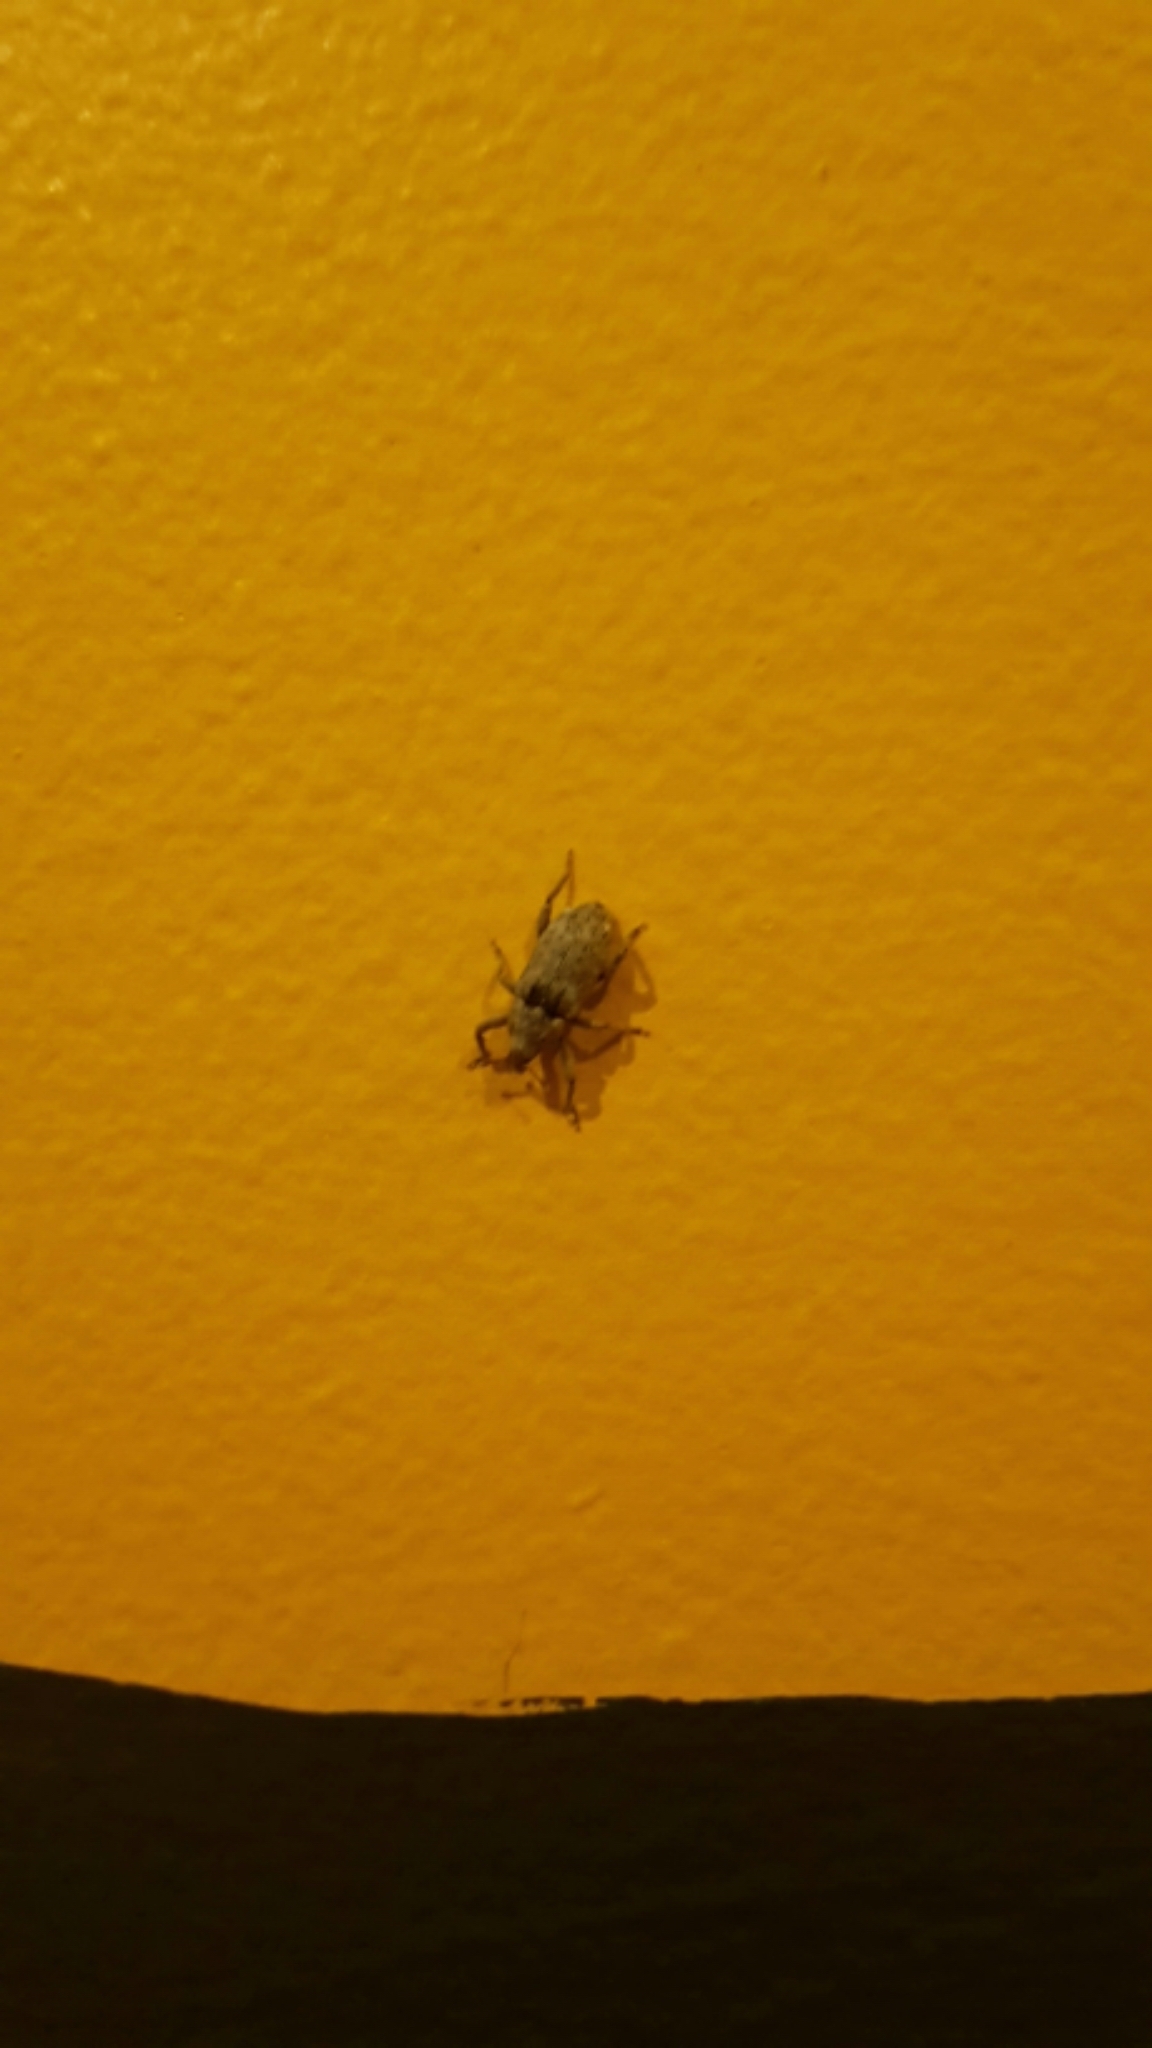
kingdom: Animalia
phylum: Arthropoda
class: Insecta
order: Coleoptera
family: Curculionidae
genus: Mitrastethus
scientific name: Mitrastethus baridioides
